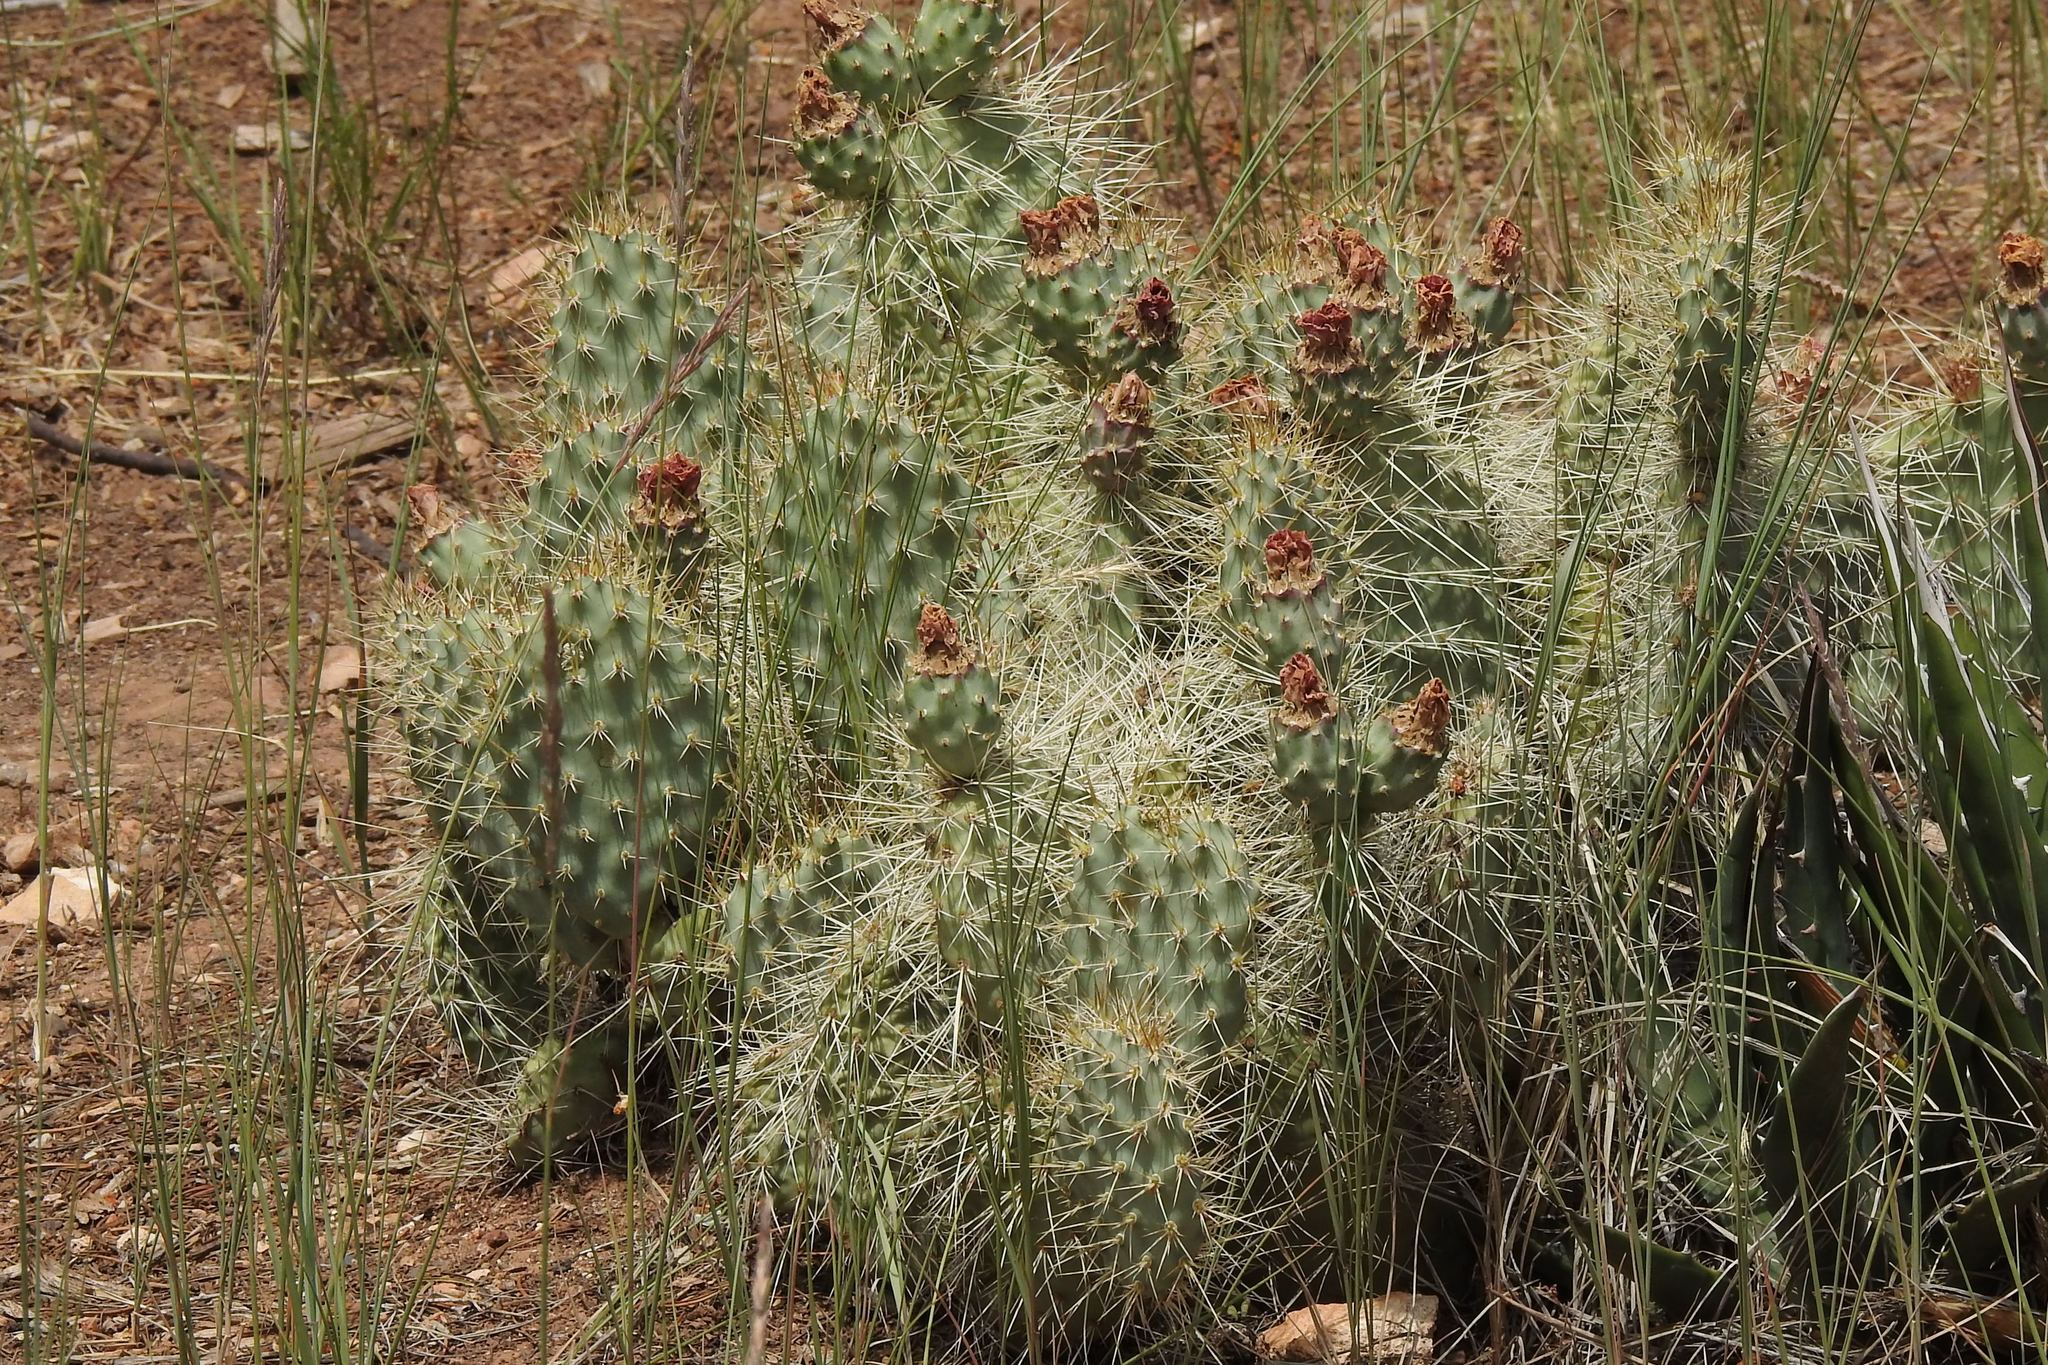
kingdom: Plantae
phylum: Tracheophyta
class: Magnoliopsida
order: Caryophyllales
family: Cactaceae
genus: Opuntia
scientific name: Opuntia polyacantha
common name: Plains prickly-pear
